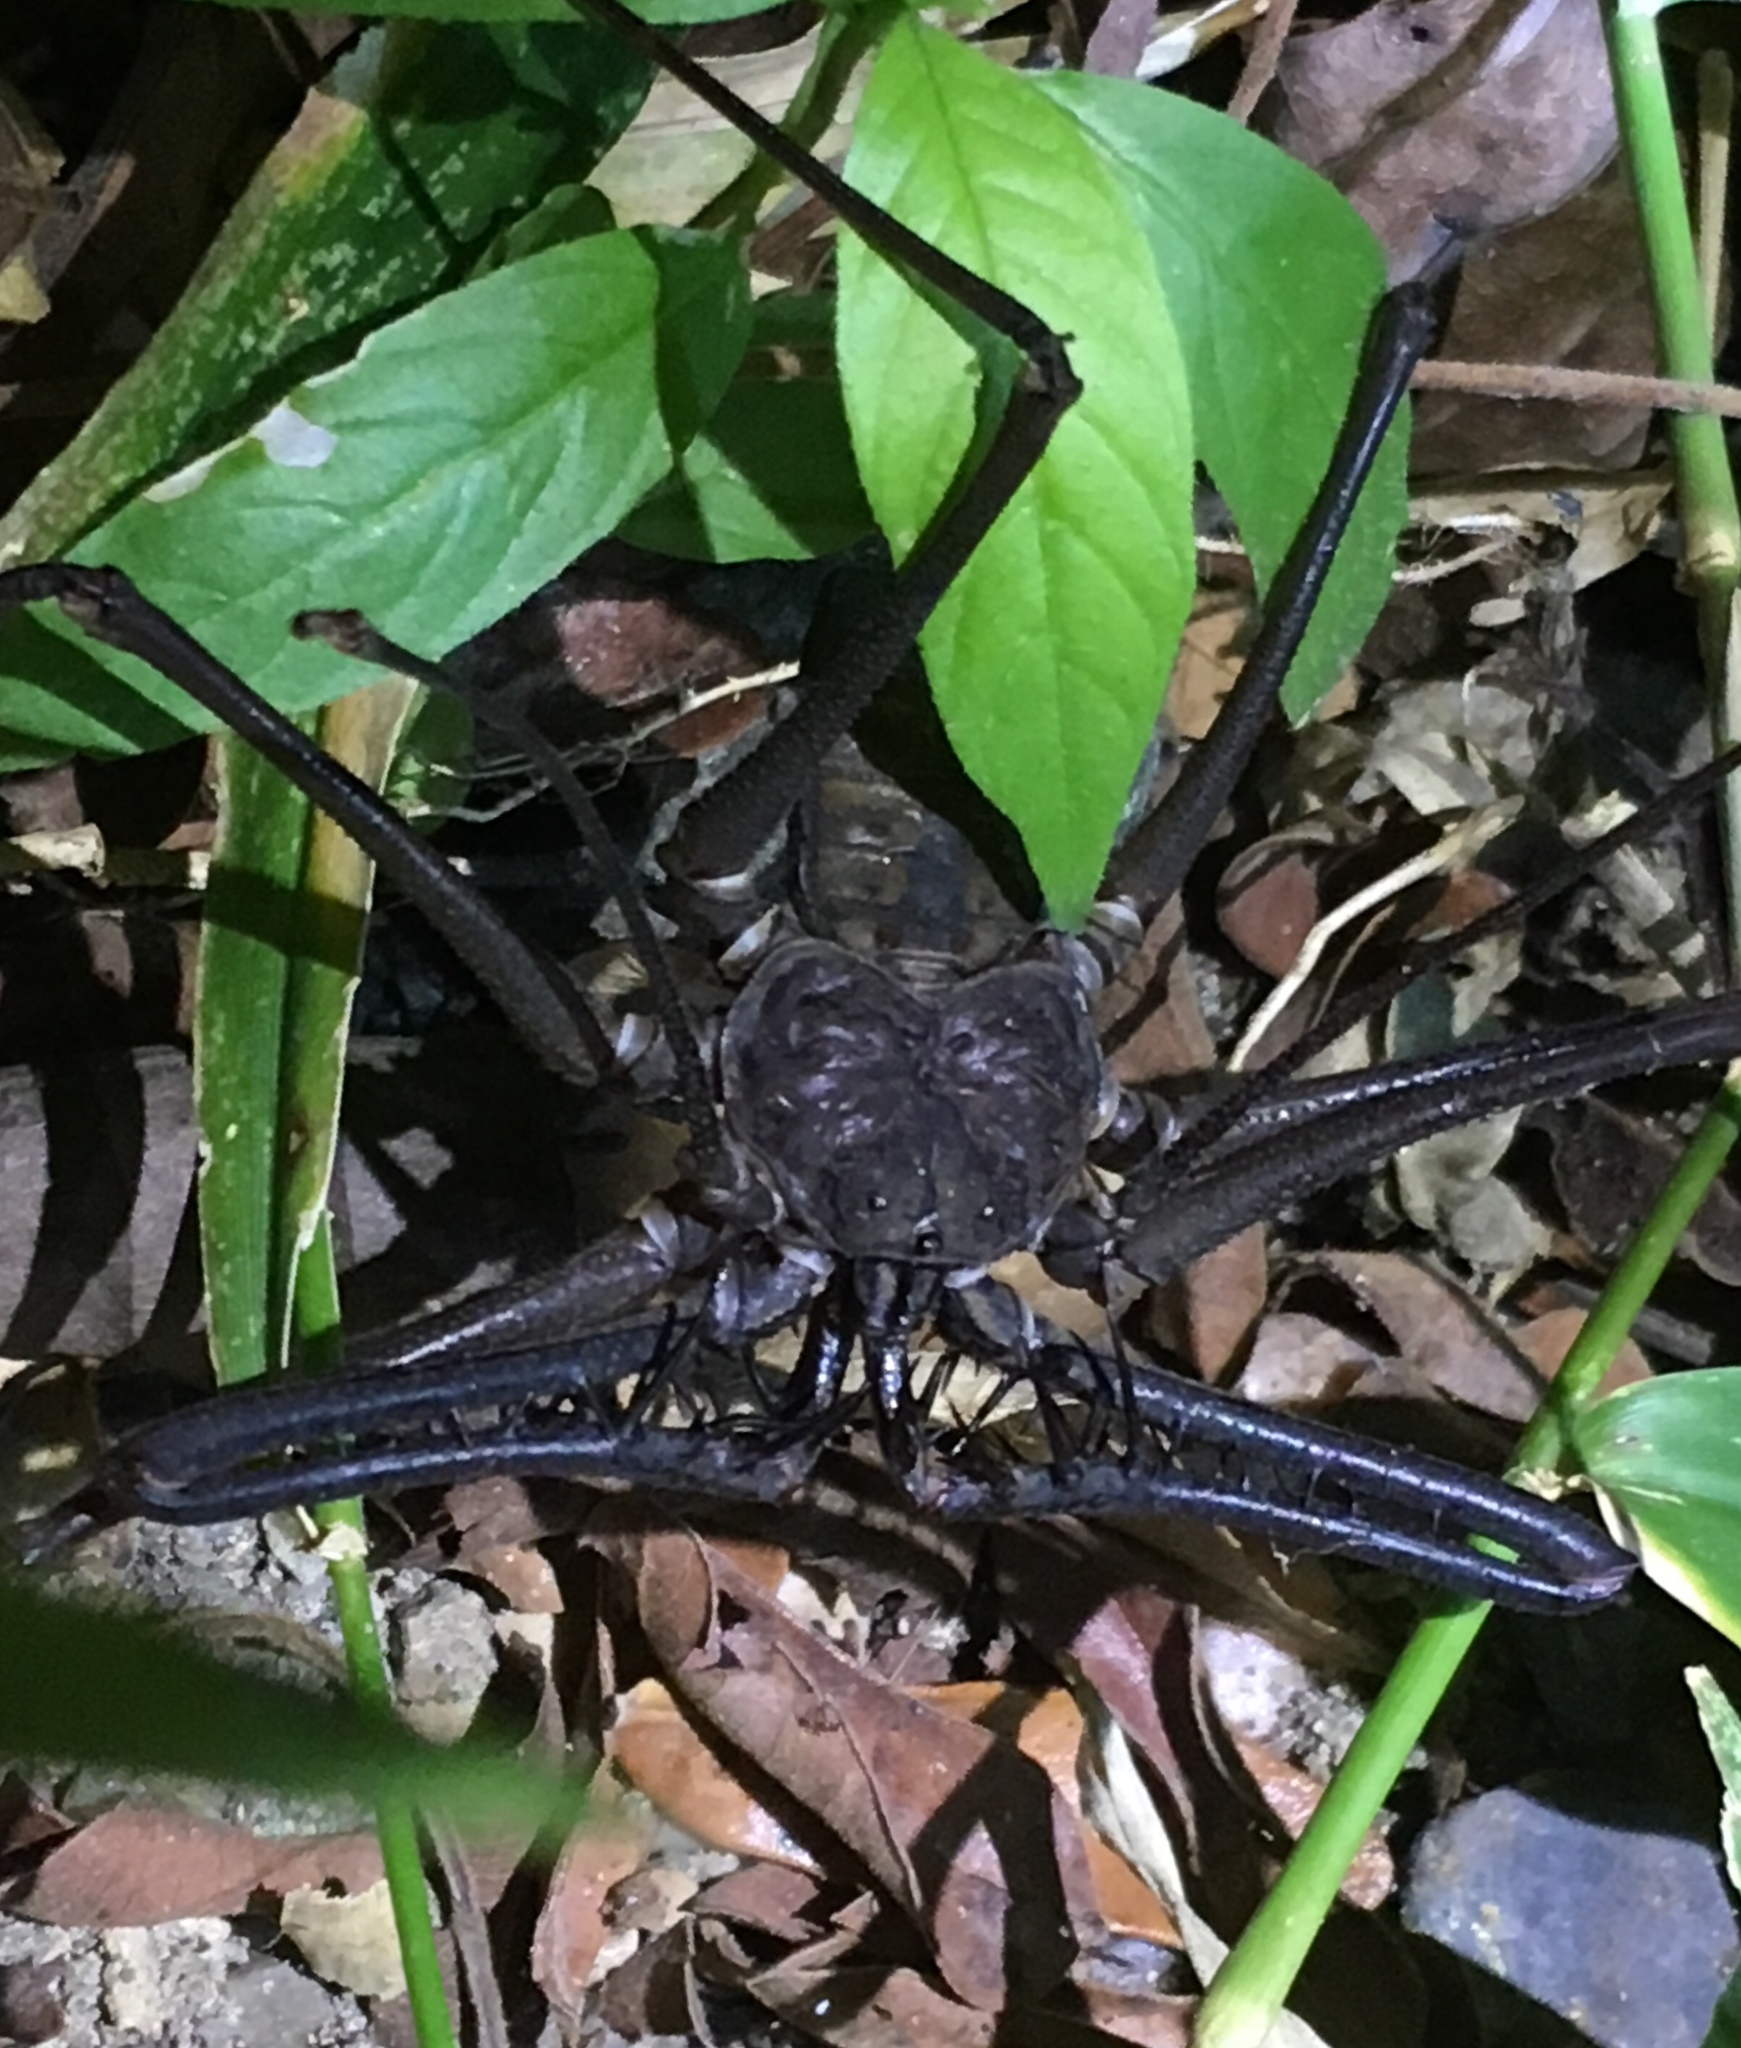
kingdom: Animalia
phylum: Arthropoda
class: Arachnida
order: Amblypygi
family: Phrynidae
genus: Heterophrynus
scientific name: Heterophrynus boterorum
